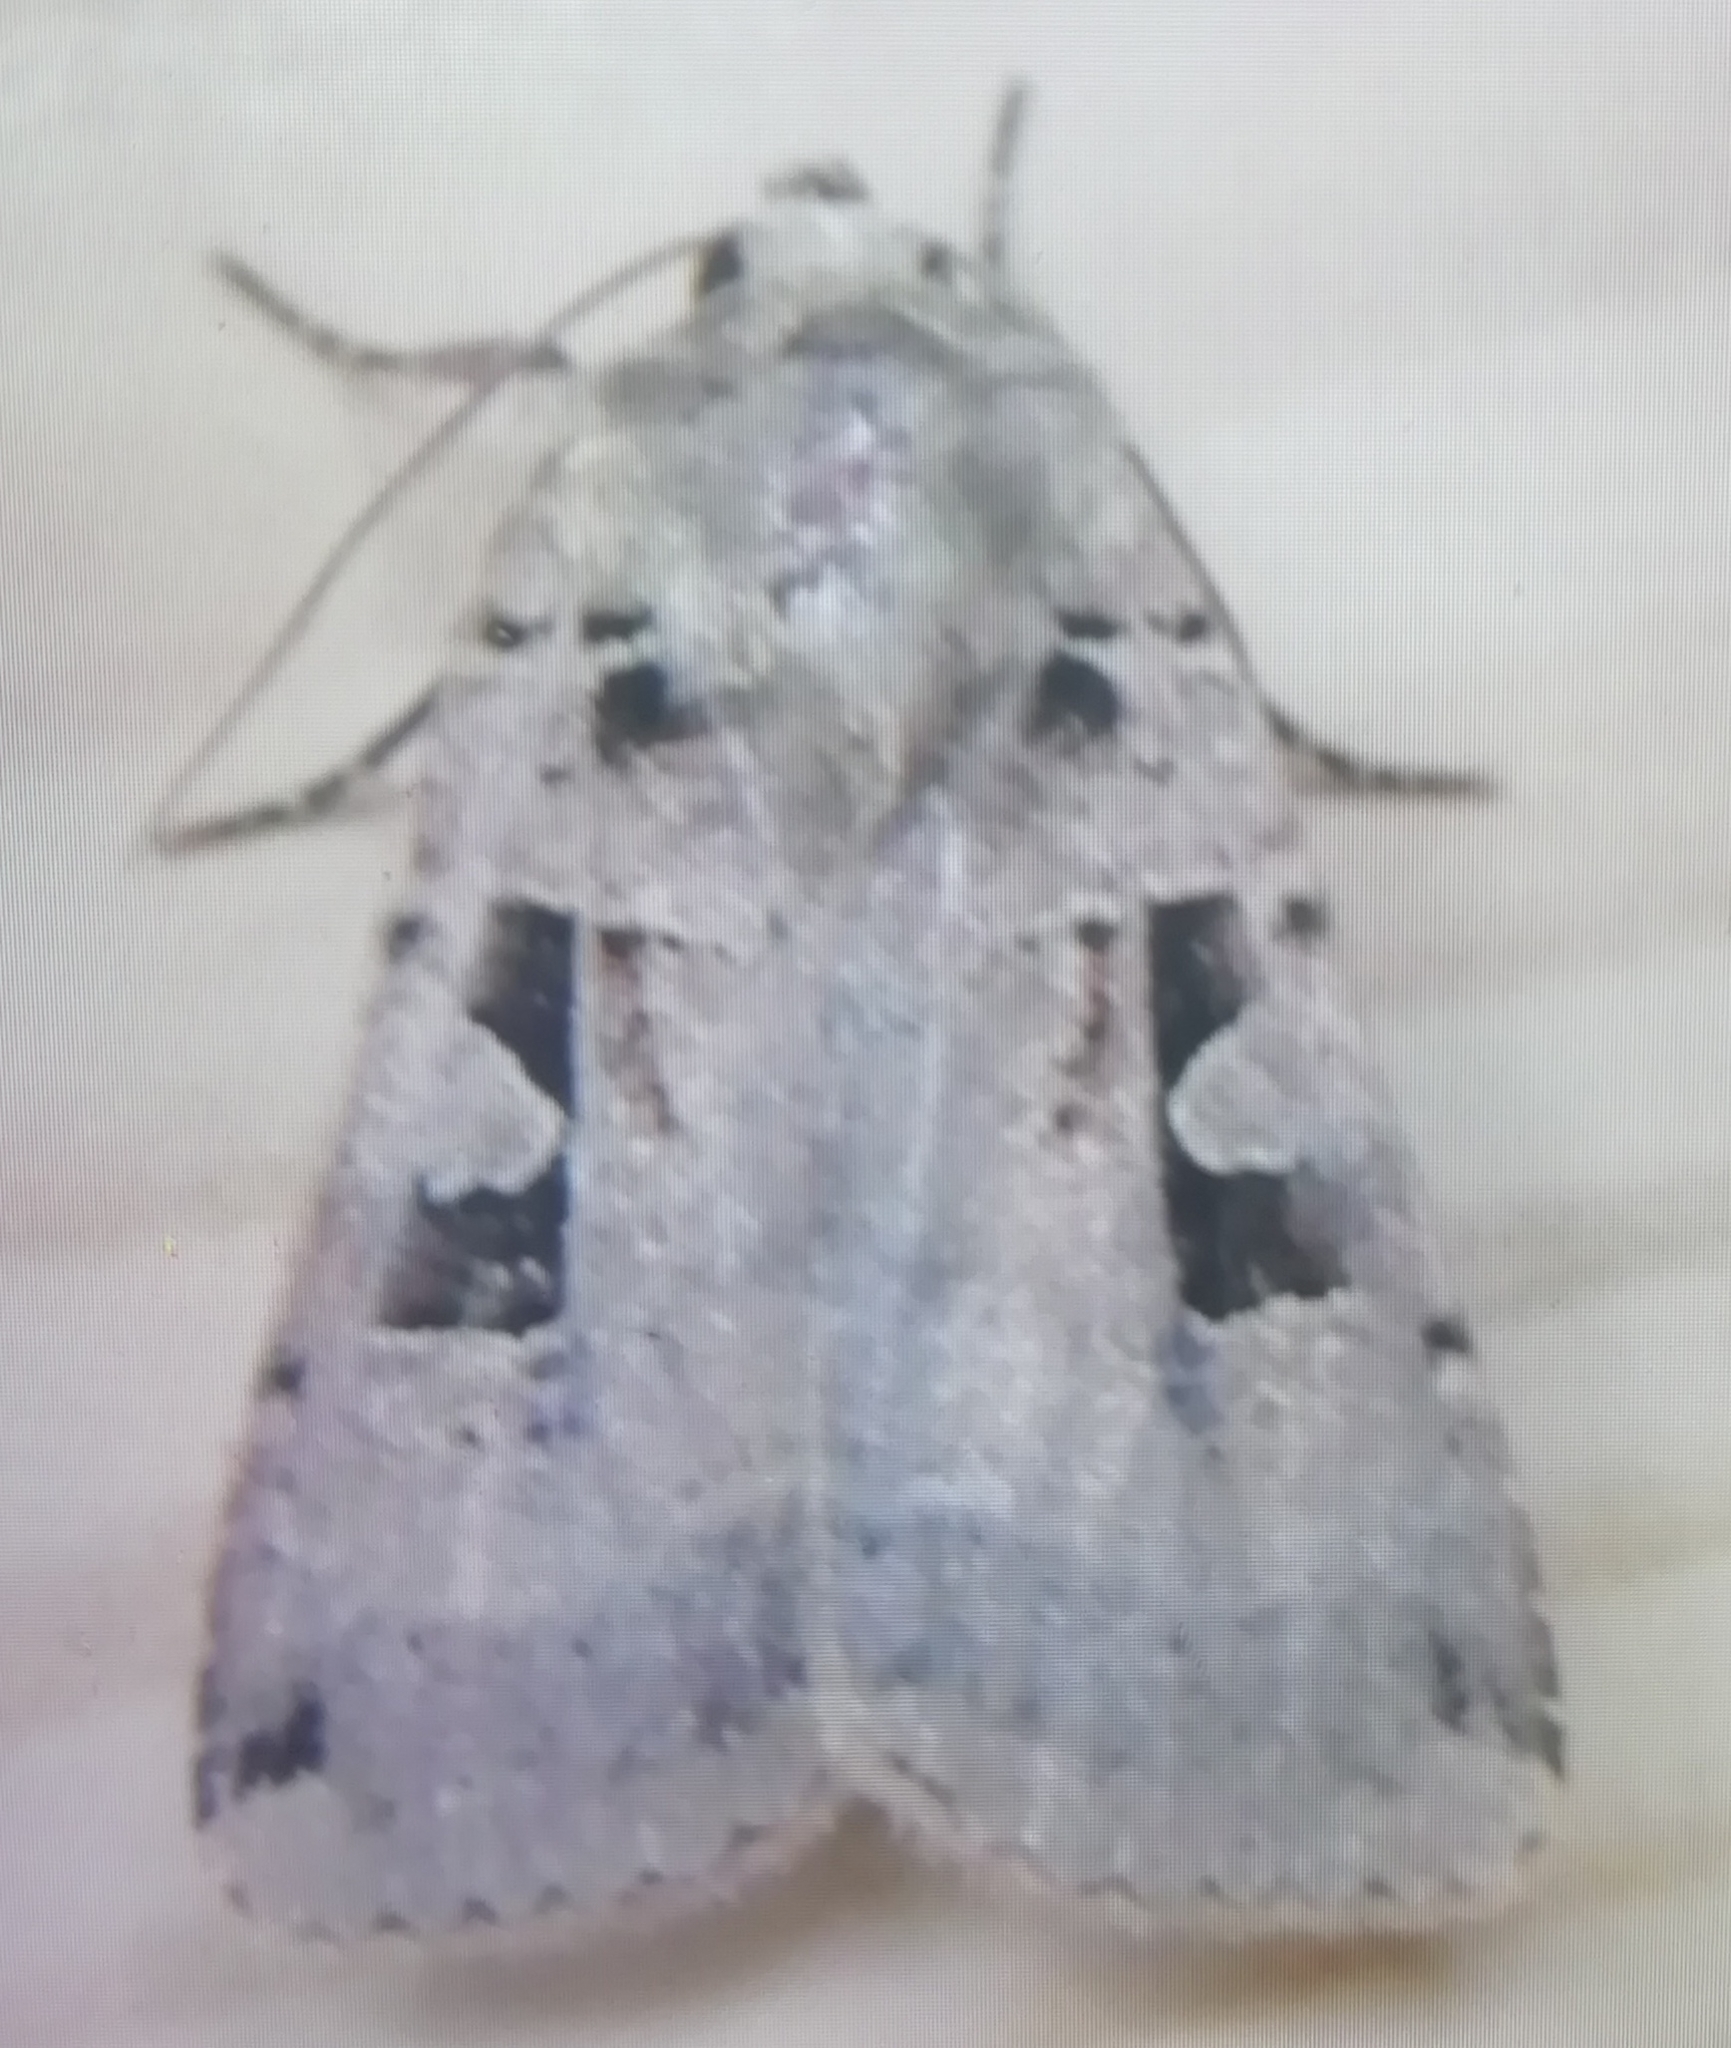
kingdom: Animalia
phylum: Arthropoda
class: Insecta
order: Lepidoptera
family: Noctuidae
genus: Xestia
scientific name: Xestia triangulum
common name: Double square-spot
